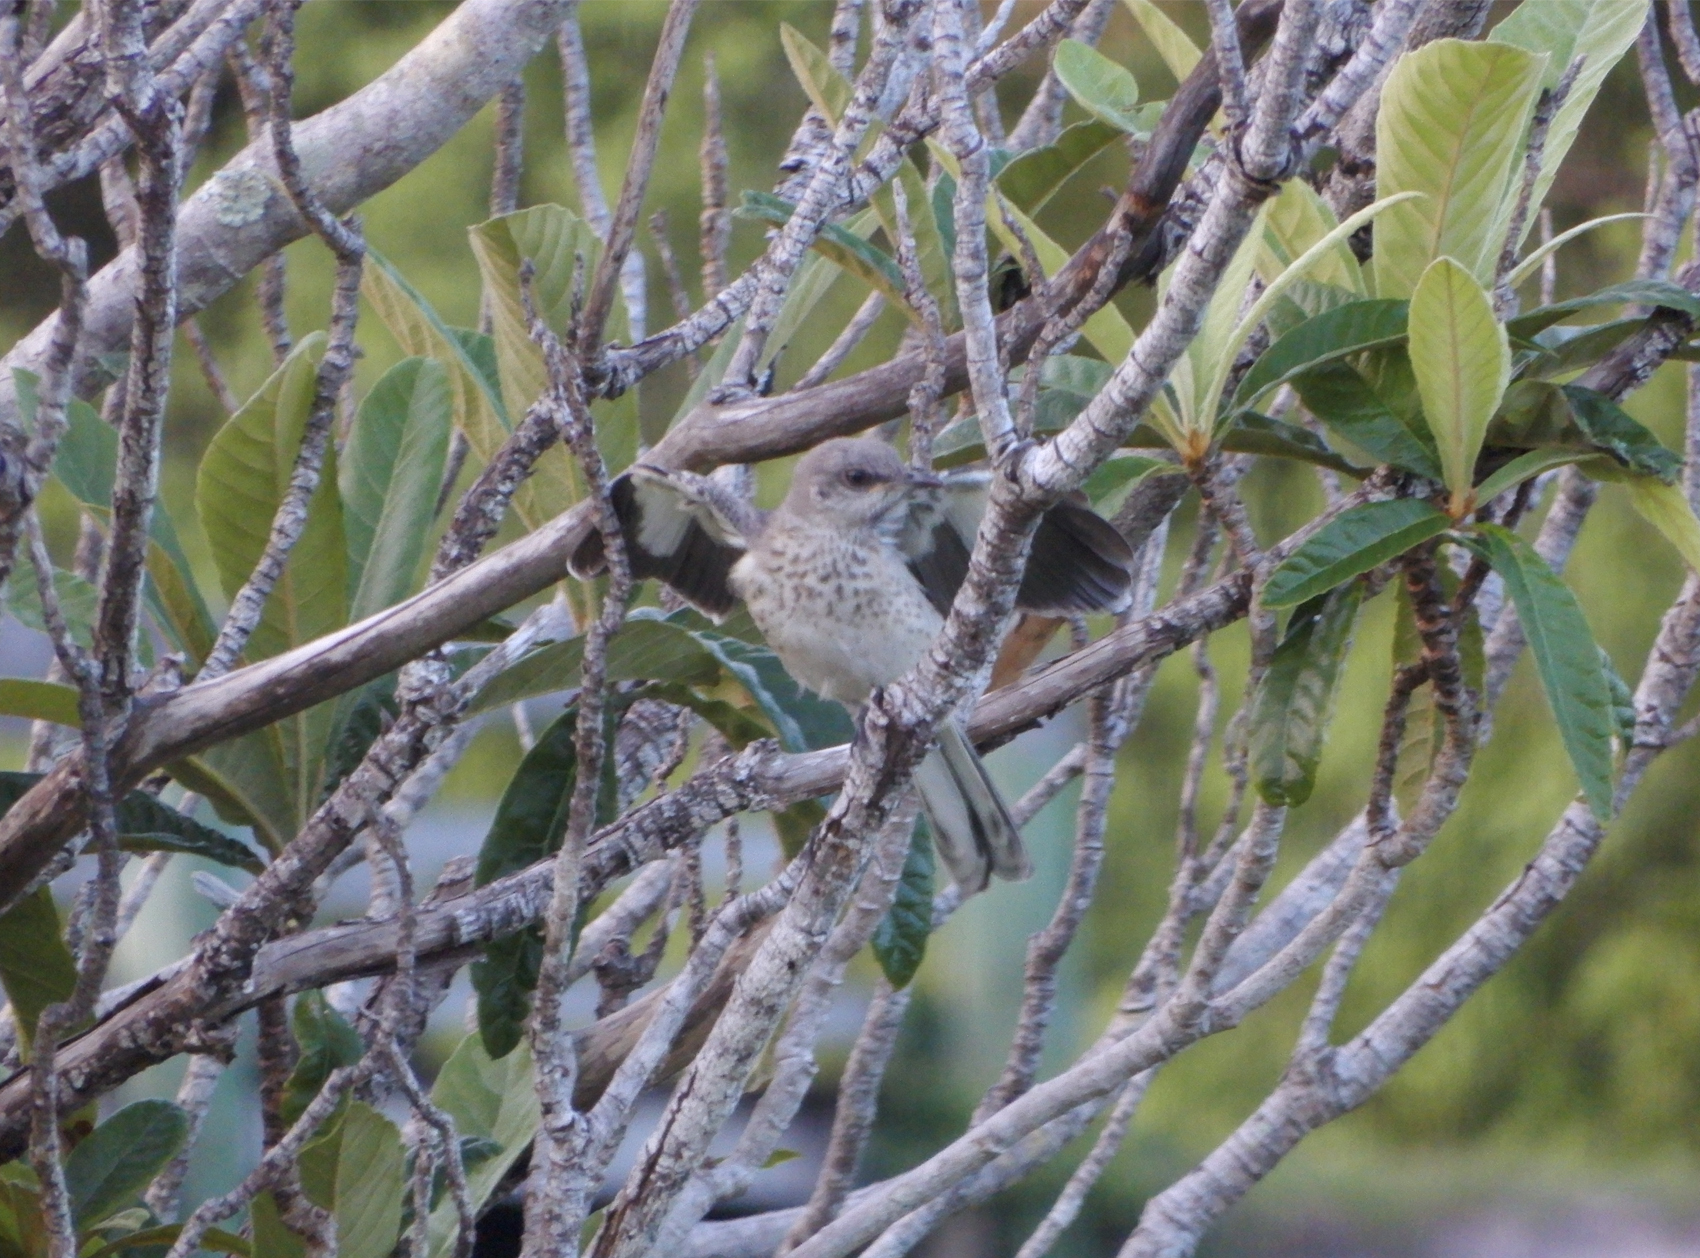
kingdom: Animalia
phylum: Chordata
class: Aves
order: Passeriformes
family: Mimidae
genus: Mimus
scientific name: Mimus polyglottos
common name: Northern mockingbird
